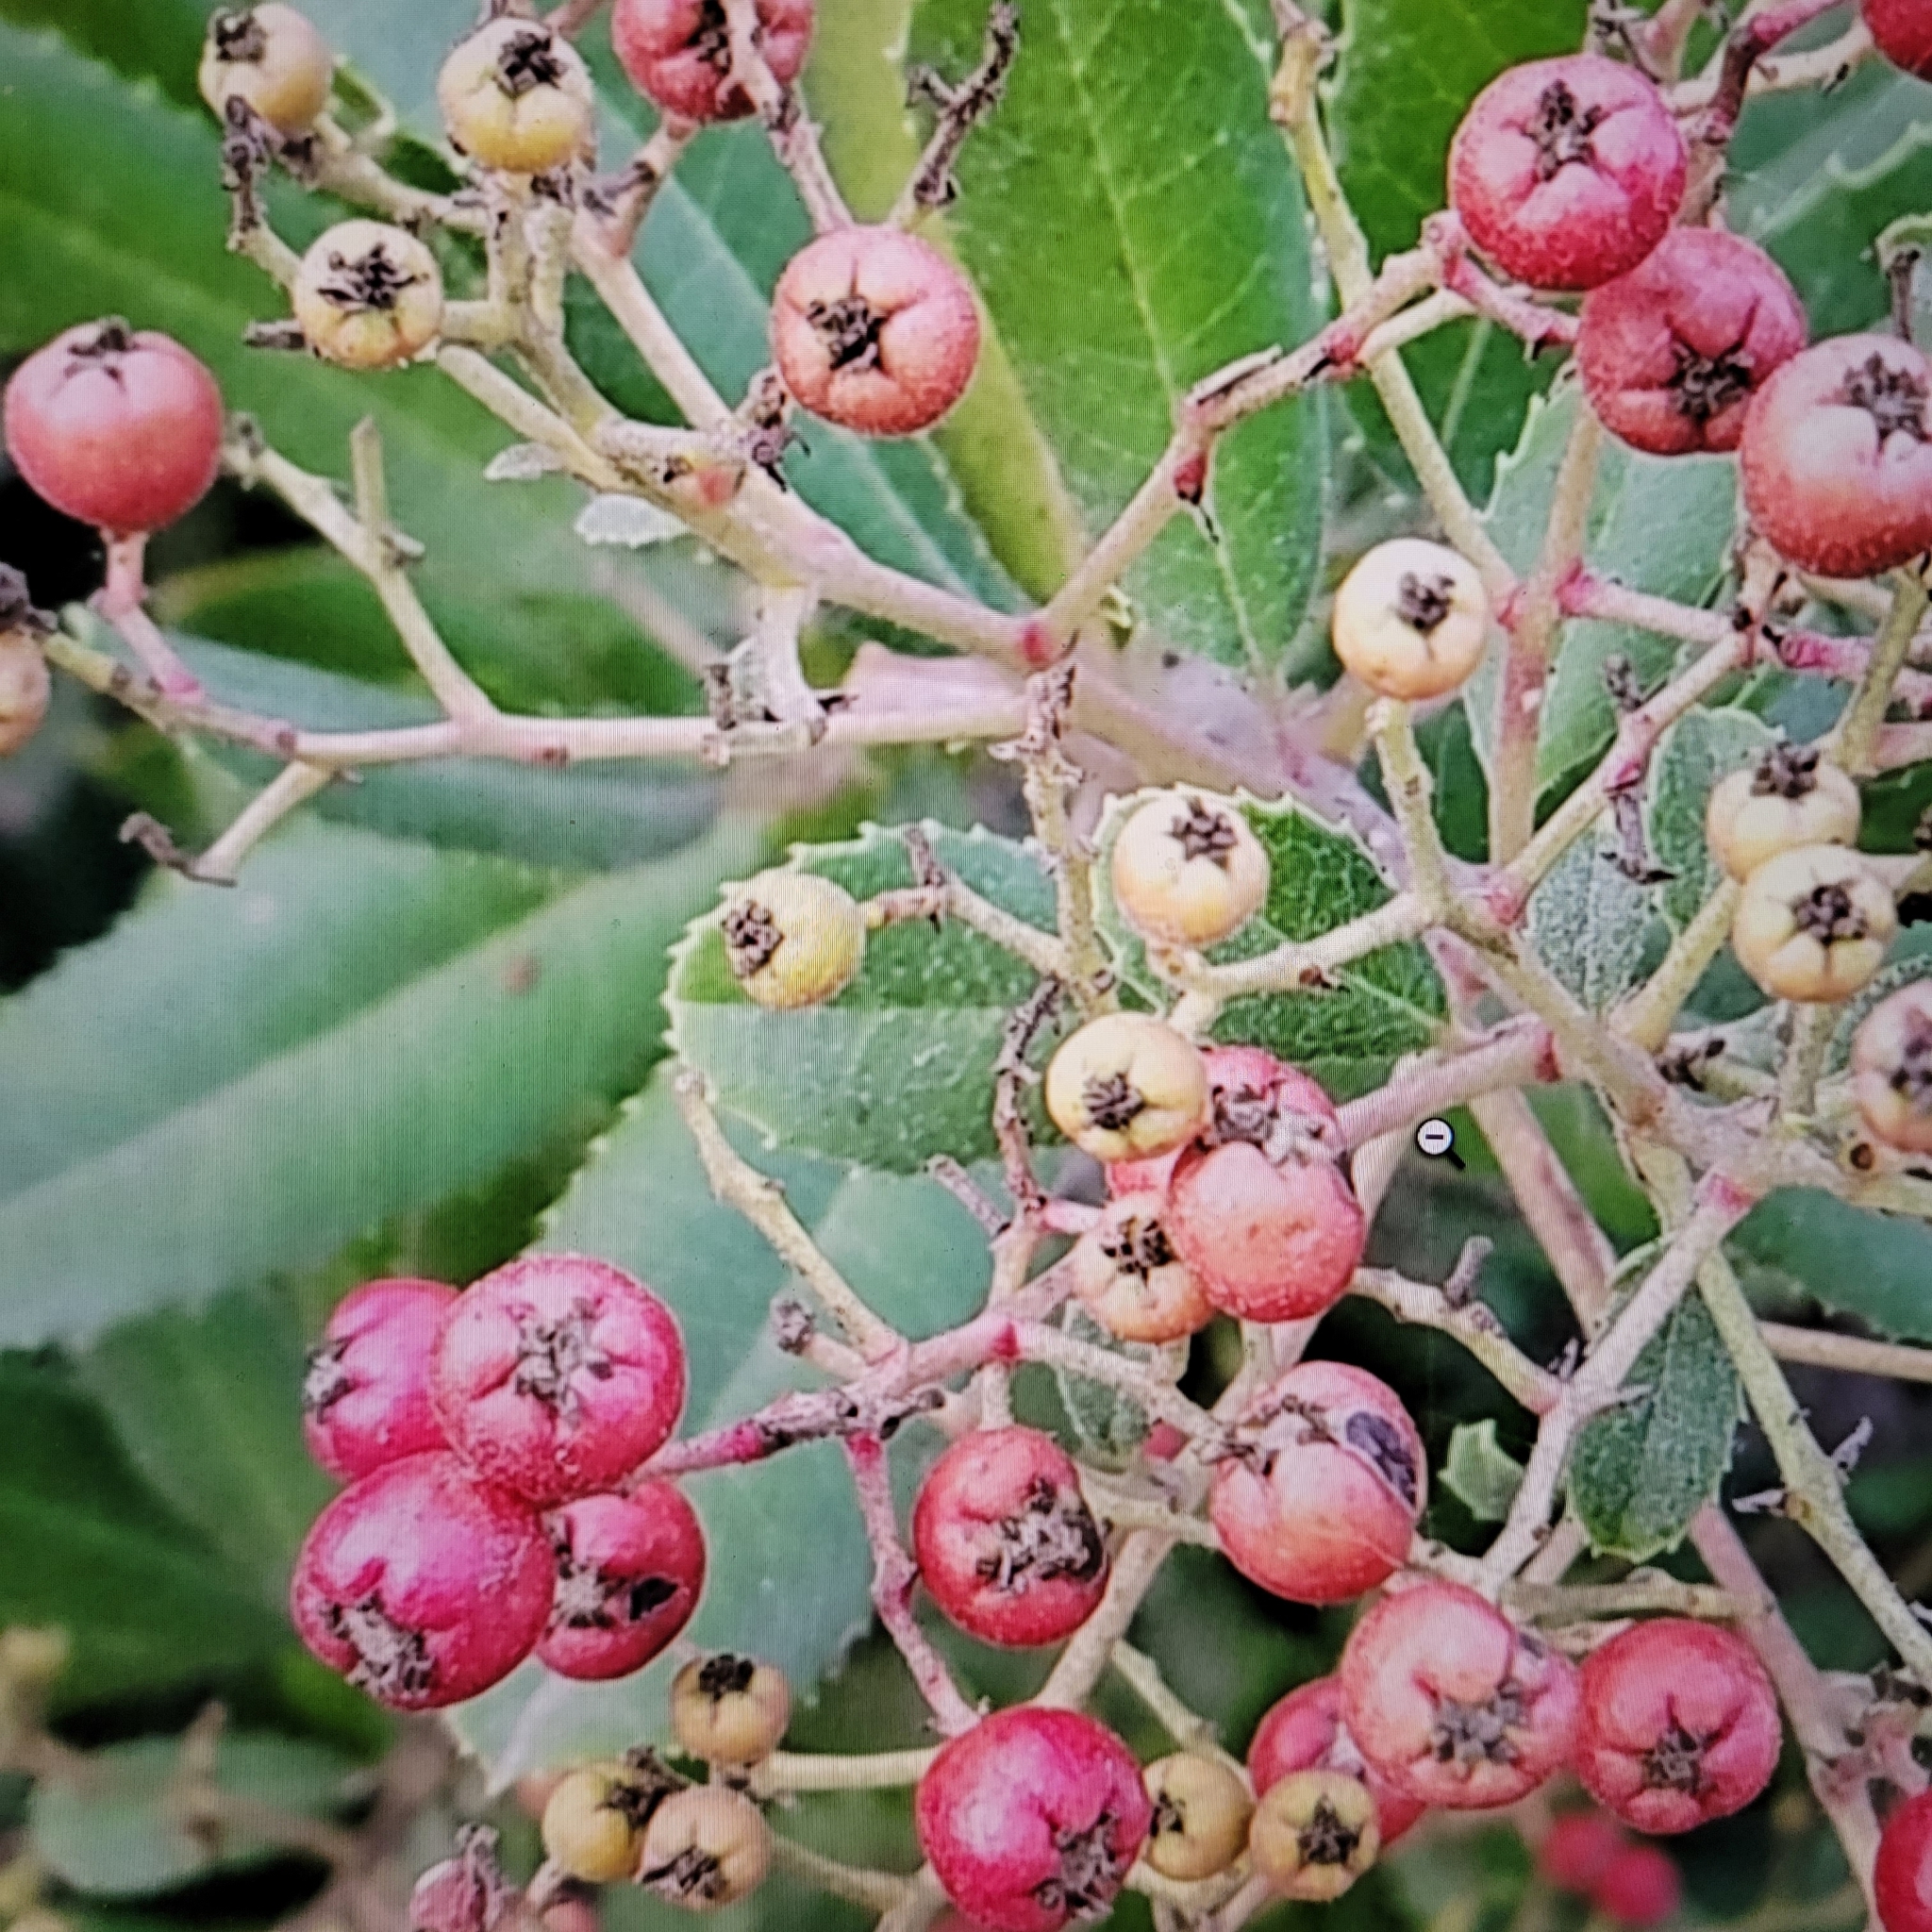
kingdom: Animalia
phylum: Arthropoda
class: Insecta
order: Diptera
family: Cecidomyiidae
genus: Asphondylia
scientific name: Asphondylia photiniae
